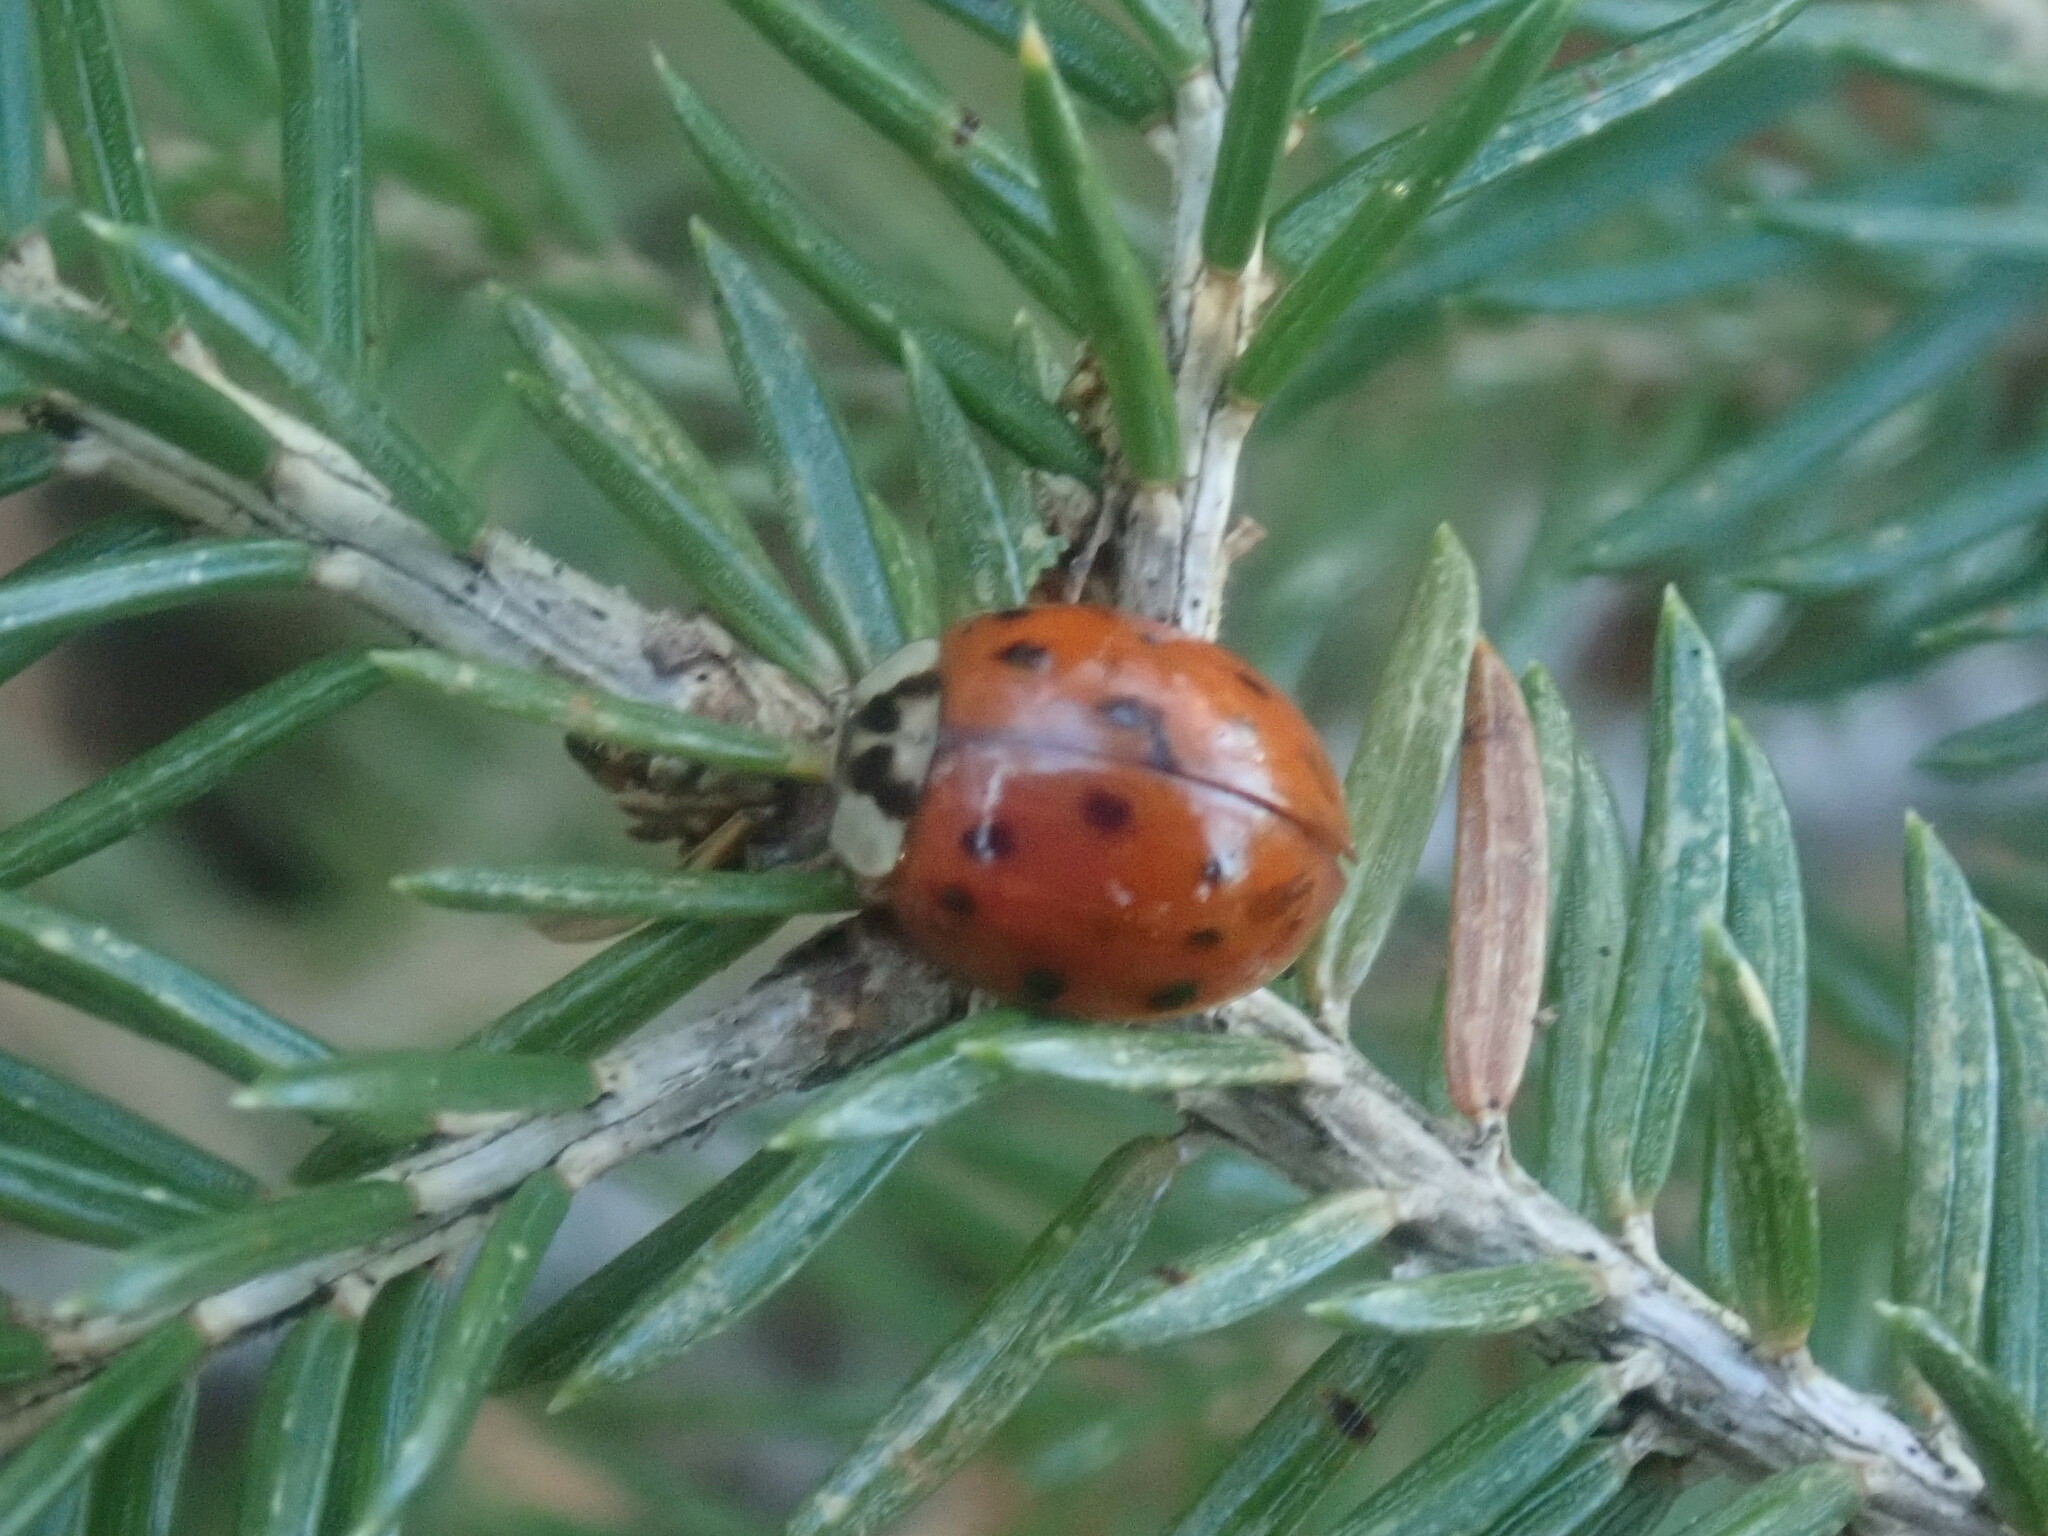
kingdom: Animalia
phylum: Arthropoda
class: Insecta
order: Coleoptera
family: Coccinellidae
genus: Harmonia
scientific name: Harmonia axyridis
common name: Harlequin ladybird
